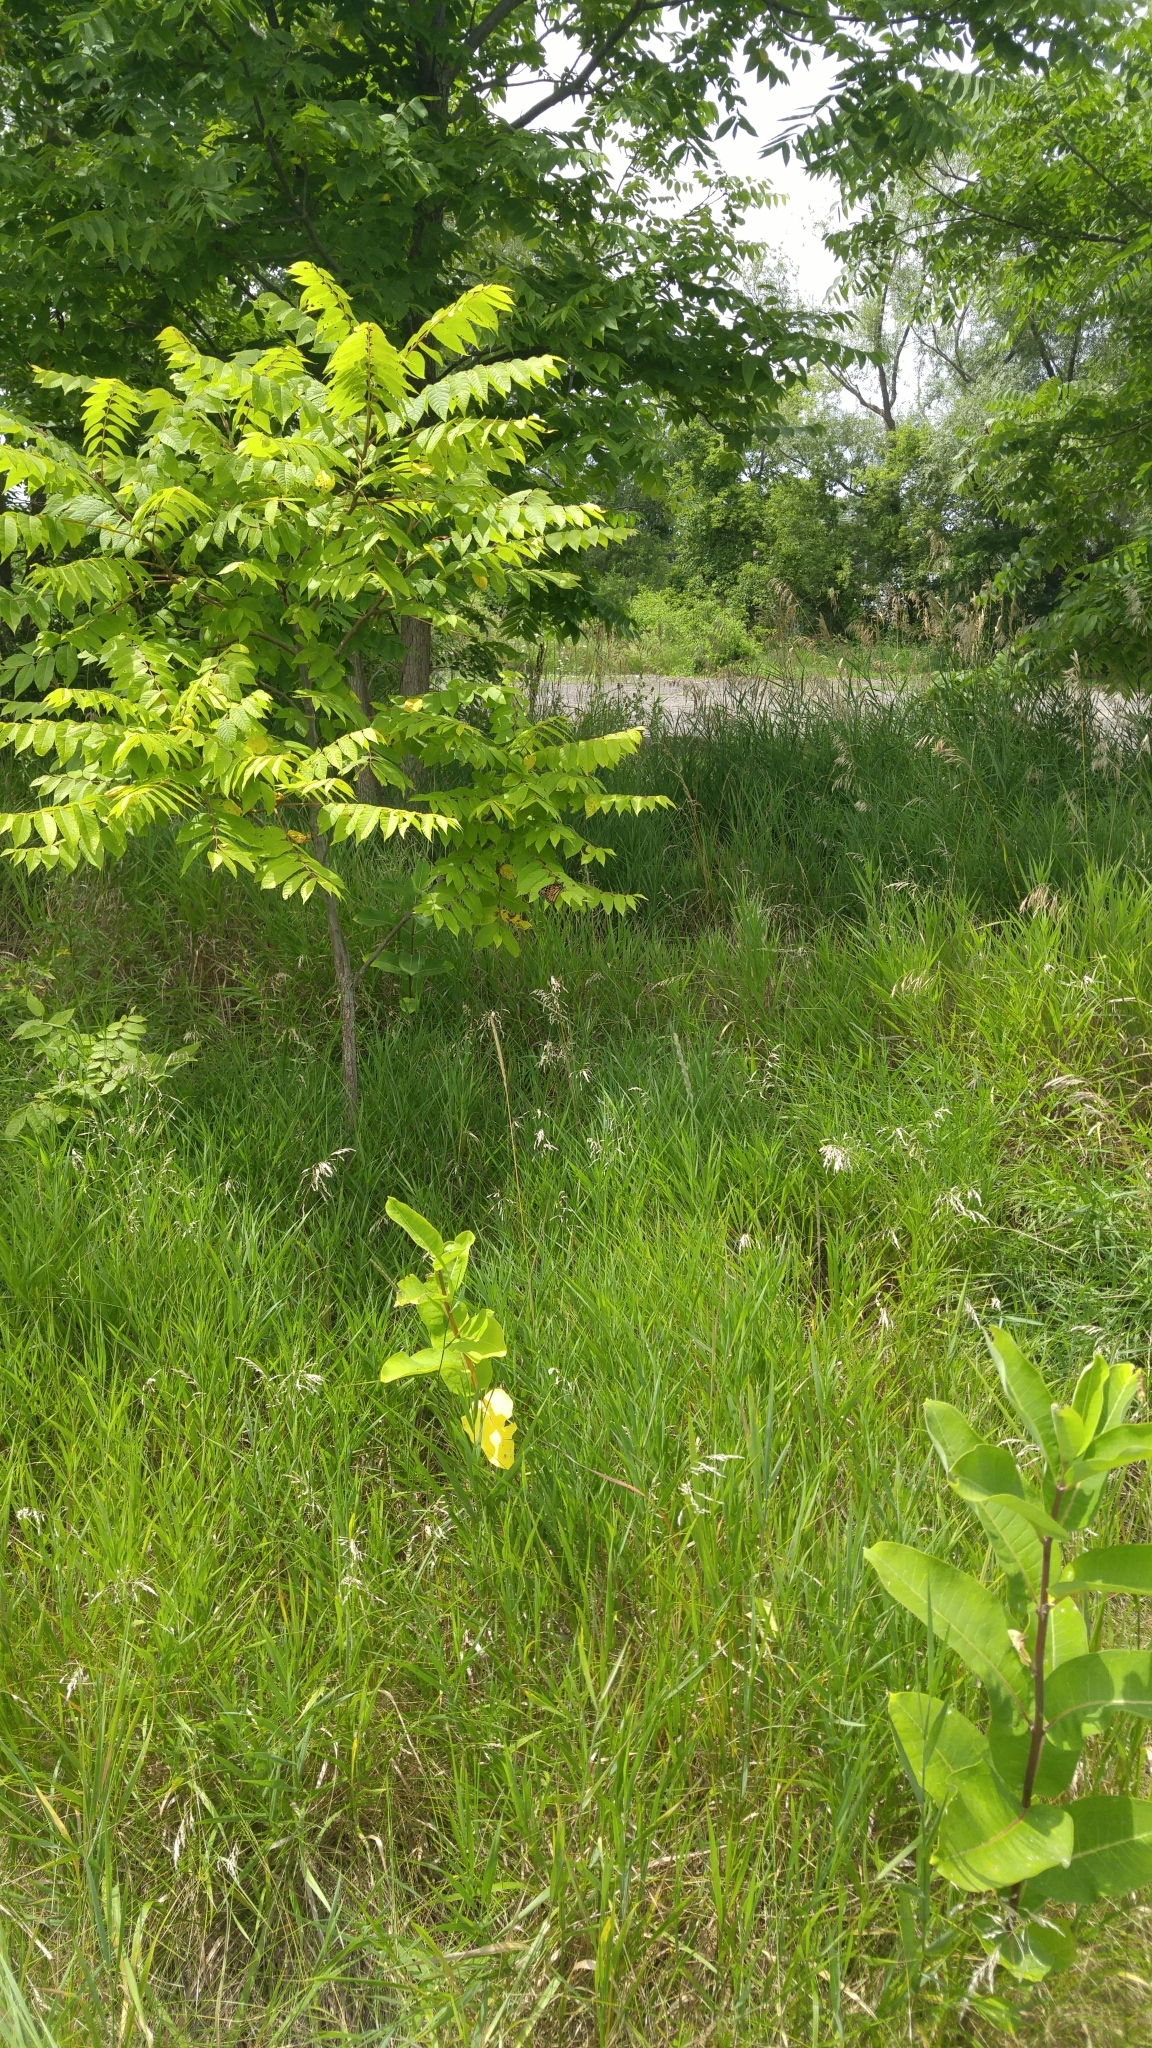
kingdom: Animalia
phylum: Arthropoda
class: Insecta
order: Lepidoptera
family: Nymphalidae
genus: Danaus
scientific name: Danaus plexippus
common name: Monarch
